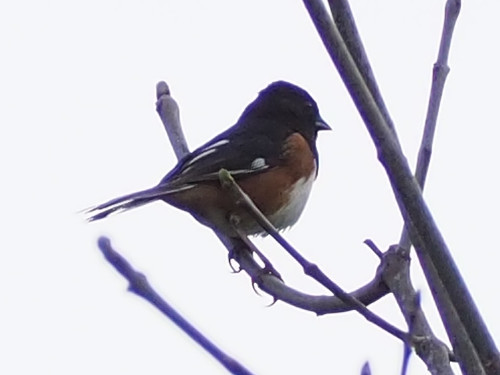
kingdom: Animalia
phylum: Chordata
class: Aves
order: Passeriformes
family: Passerellidae
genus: Pipilo
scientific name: Pipilo erythrophthalmus
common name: Eastern towhee
